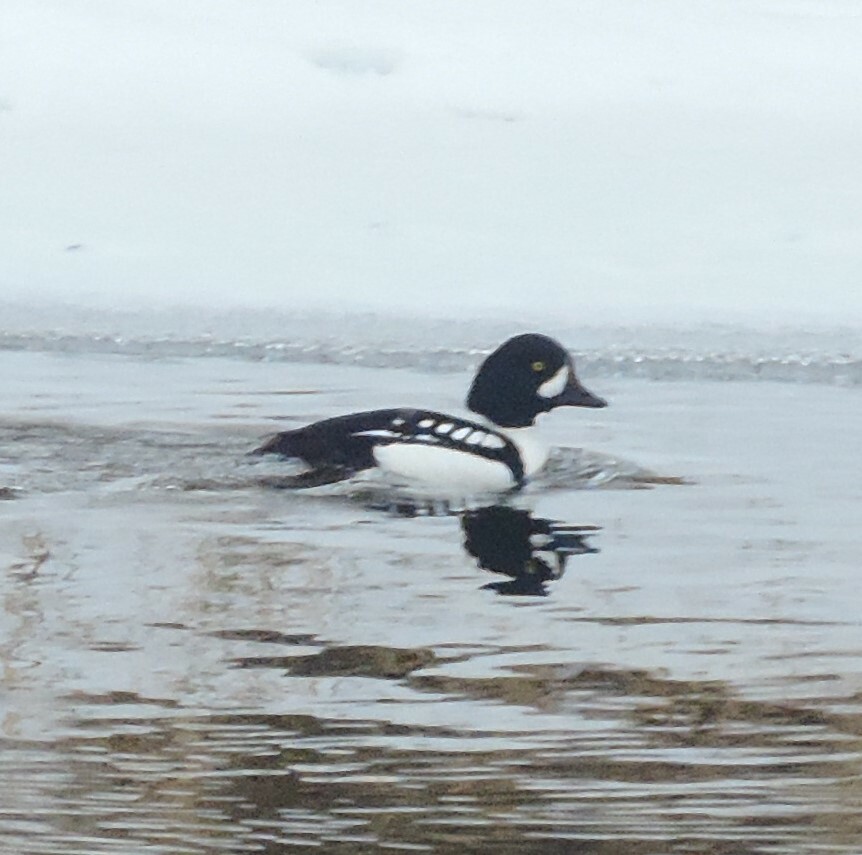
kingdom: Animalia
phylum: Chordata
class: Aves
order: Anseriformes
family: Anatidae
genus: Bucephala
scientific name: Bucephala islandica
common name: Barrow's goldeneye
